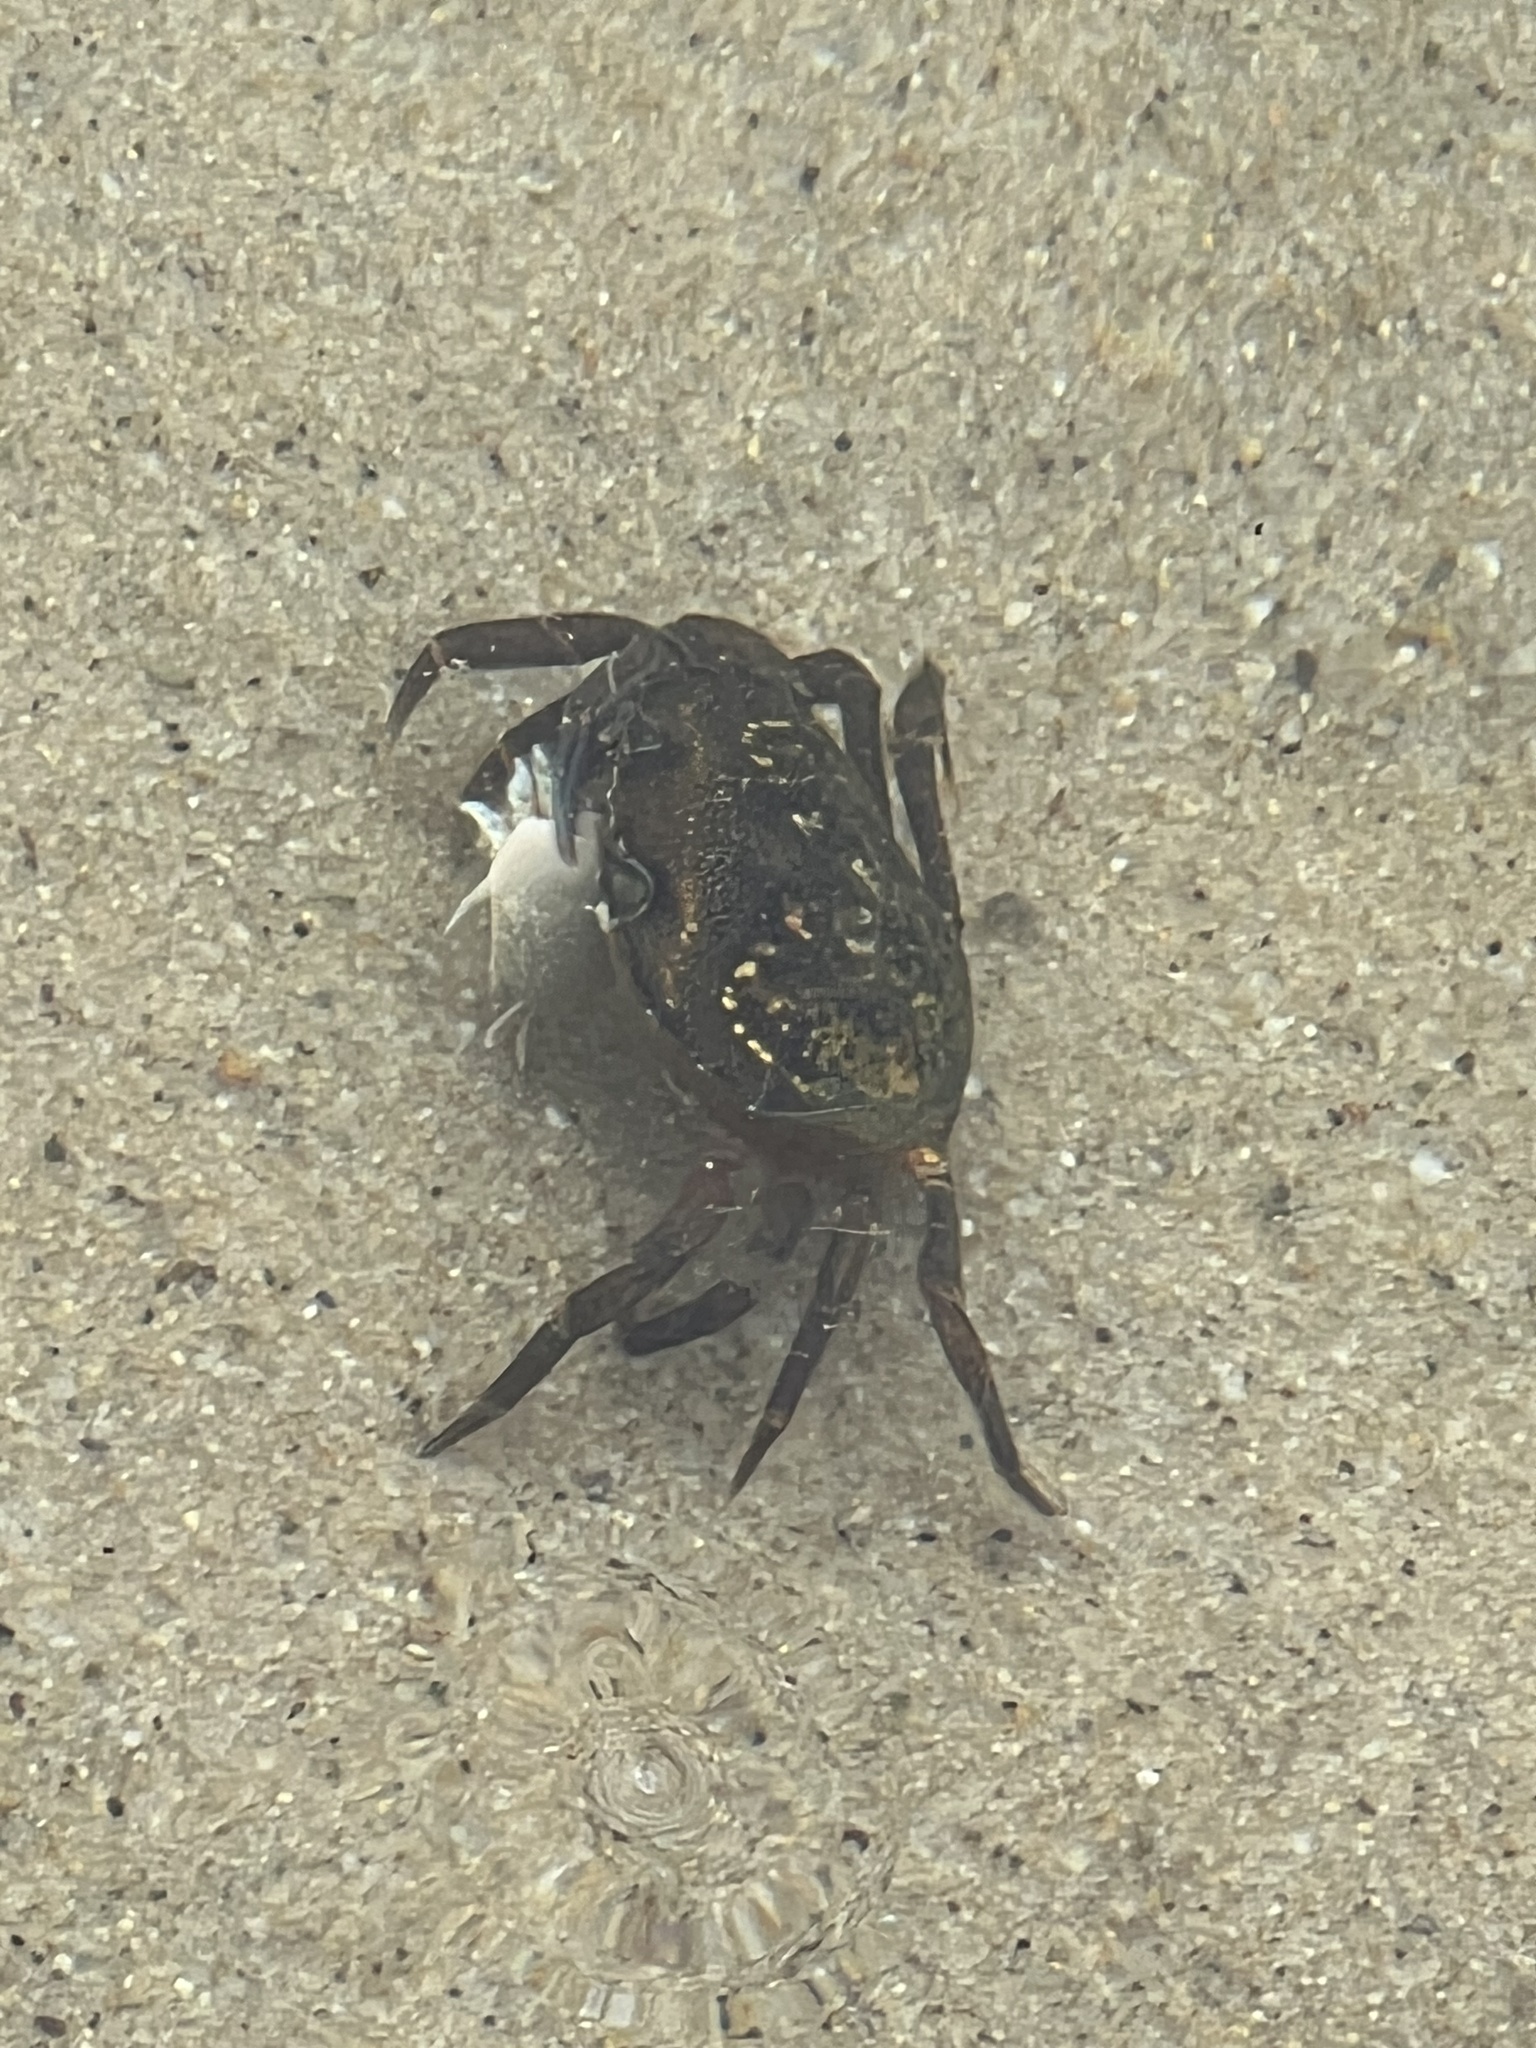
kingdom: Animalia
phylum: Arthropoda
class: Malacostraca
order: Decapoda
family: Carcinidae
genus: Carcinus
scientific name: Carcinus maenas
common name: European green crab
